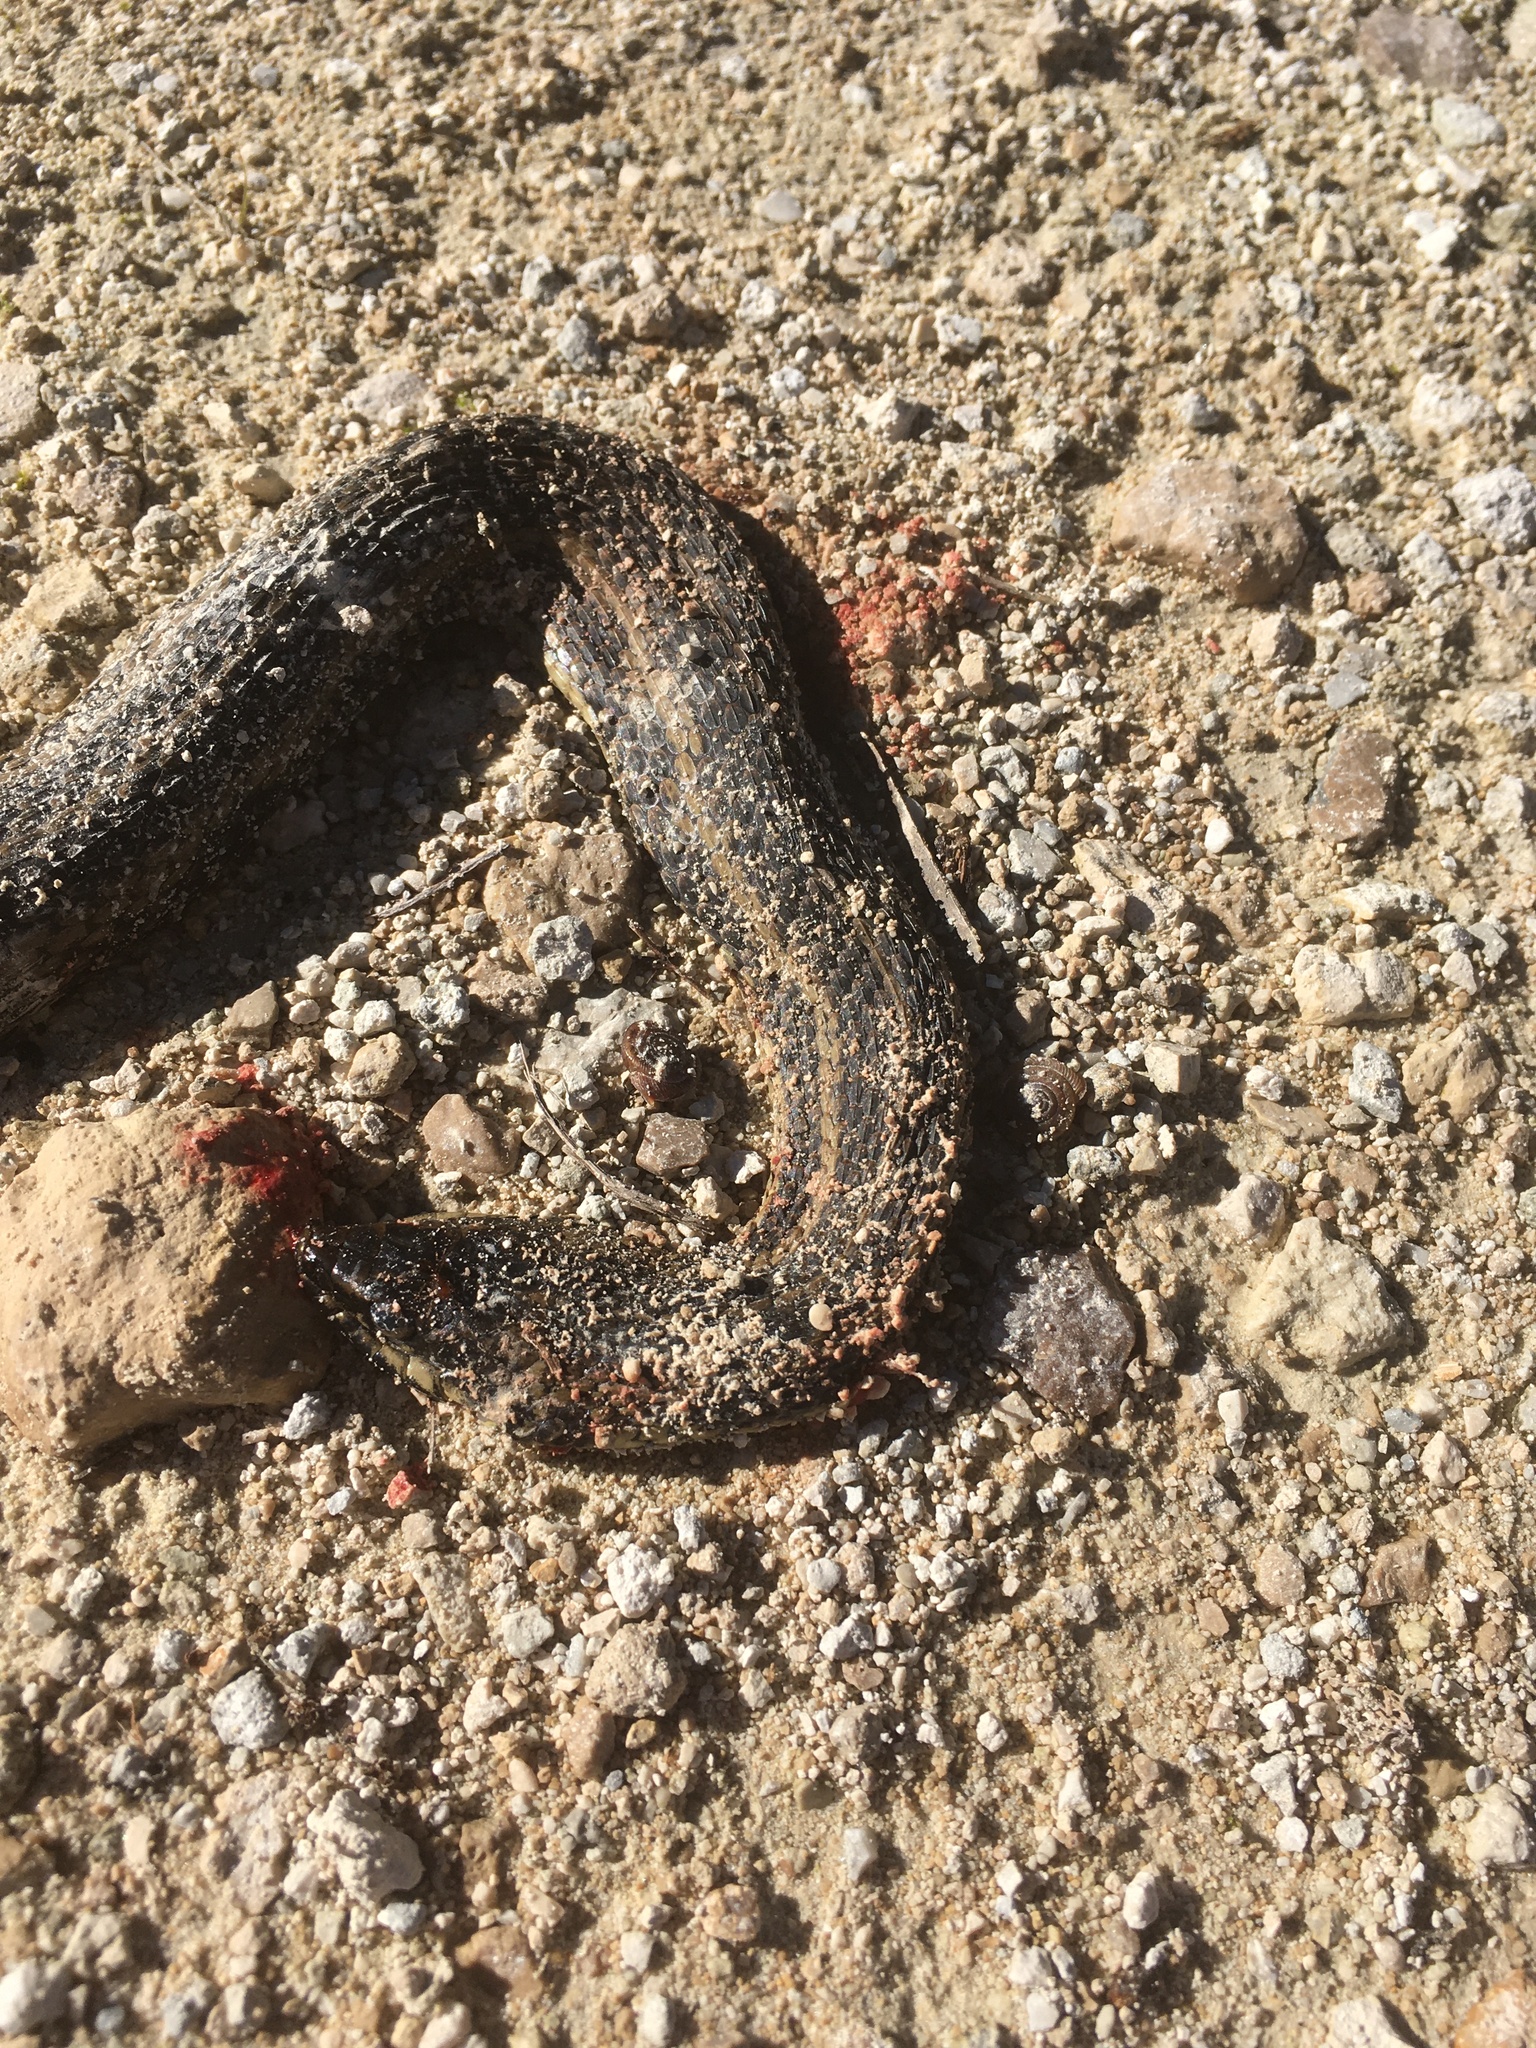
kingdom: Animalia
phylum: Chordata
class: Squamata
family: Colubridae
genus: Nerodia
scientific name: Nerodia clarkii
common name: Atlantic saltmarsh snake
